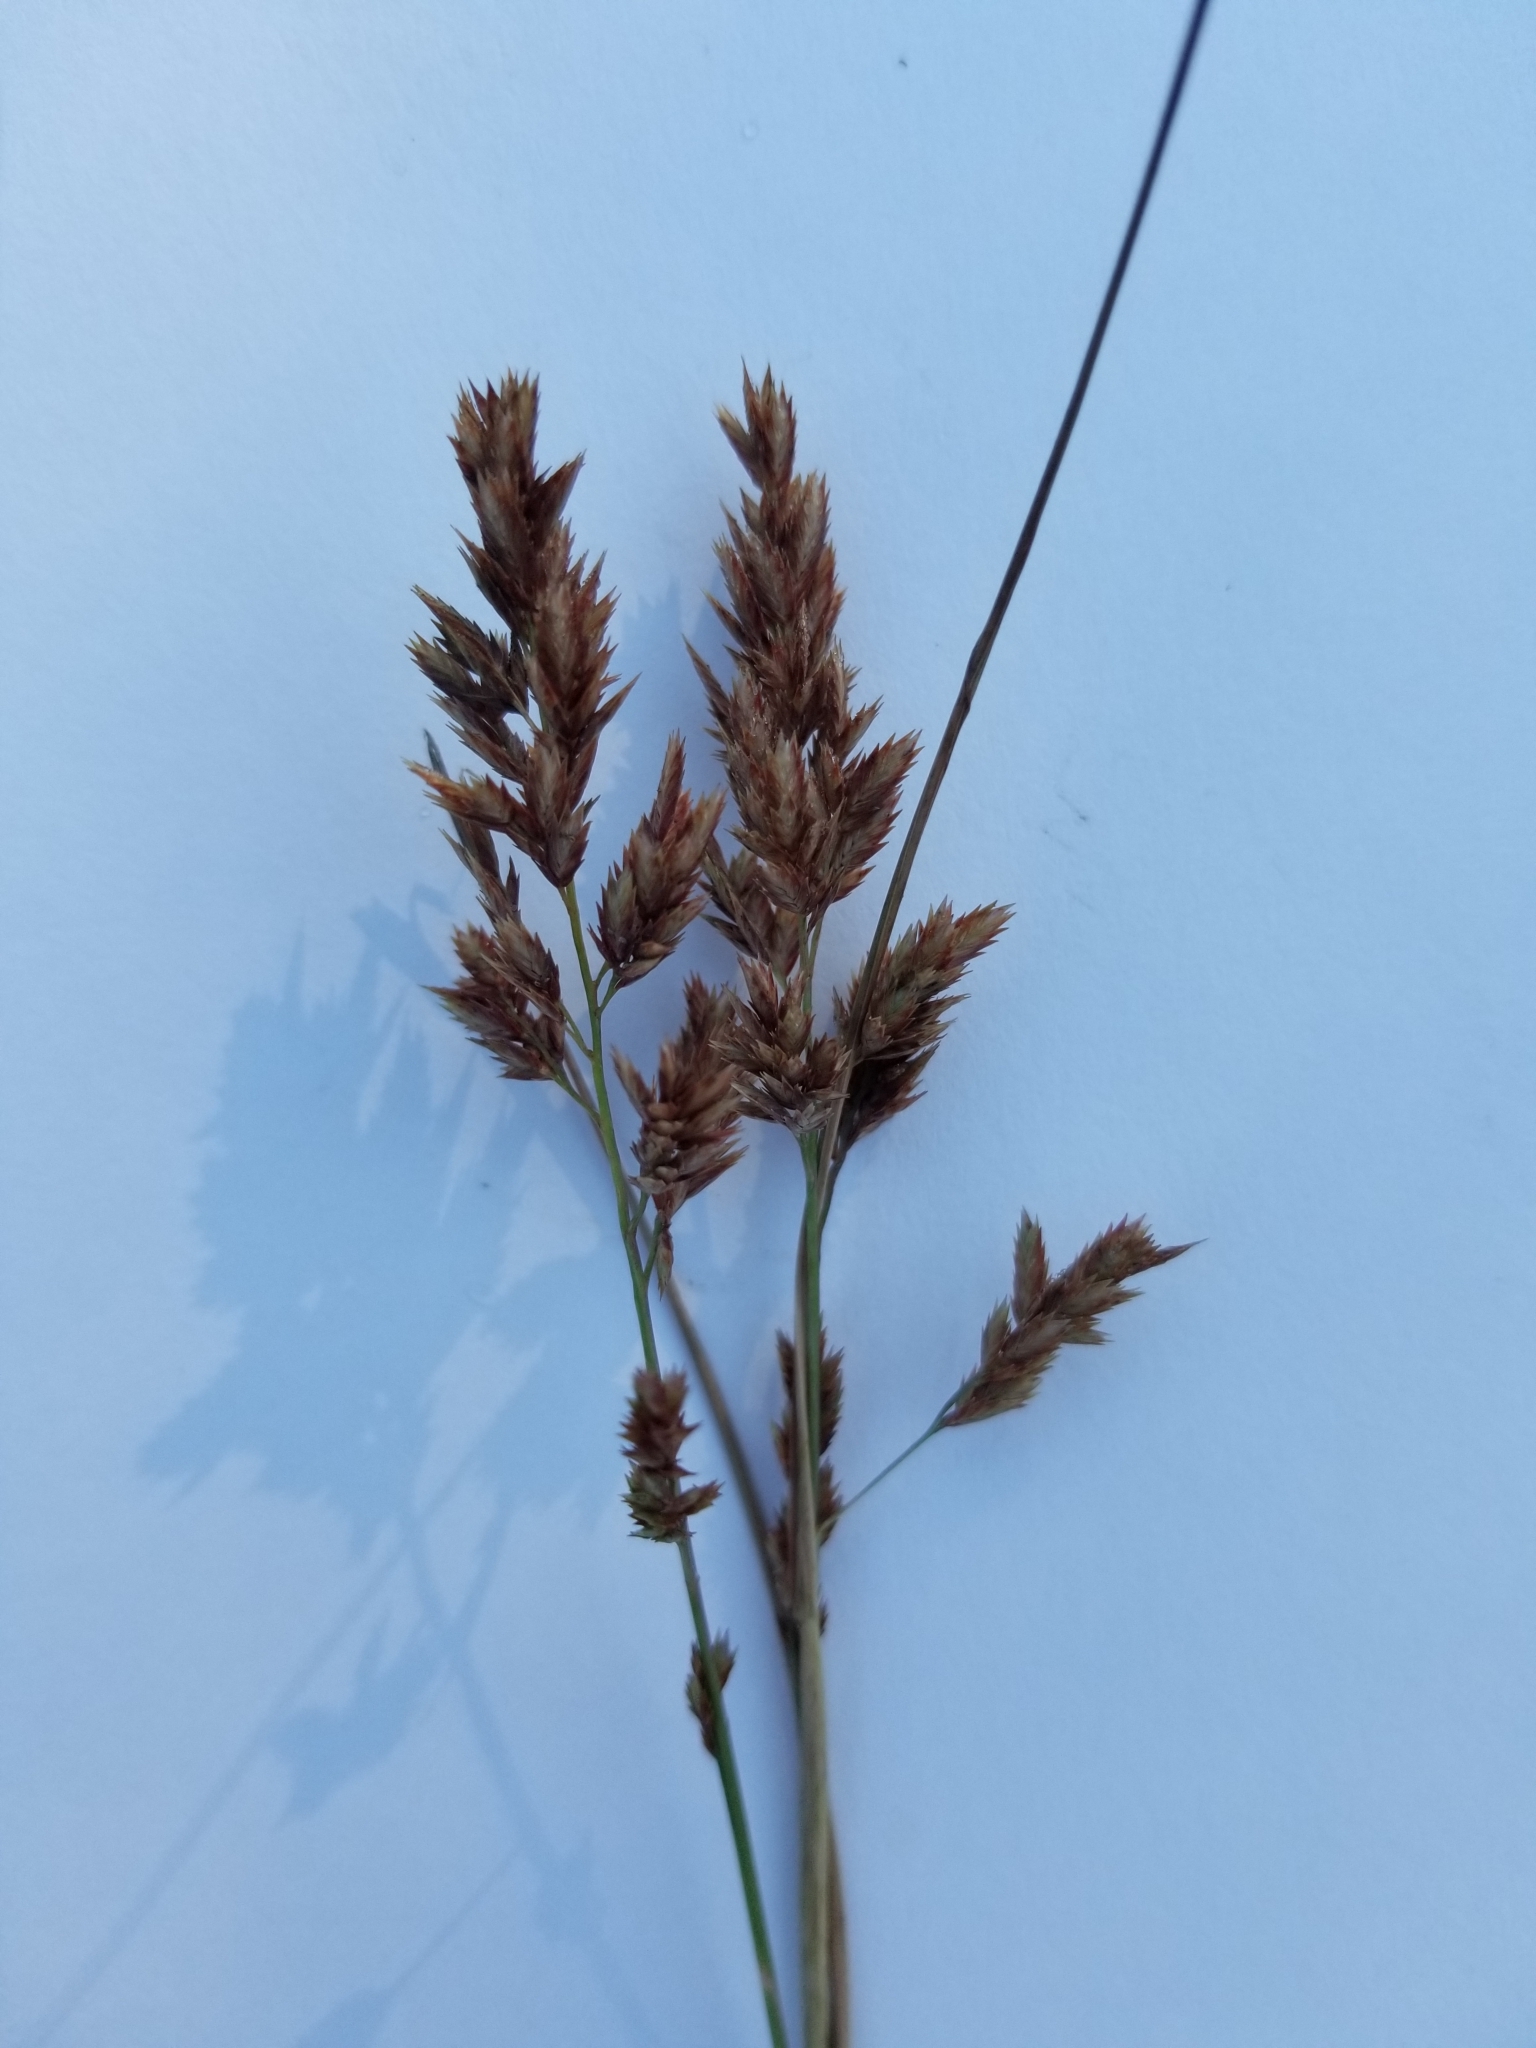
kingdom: Plantae
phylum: Tracheophyta
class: Liliopsida
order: Poales
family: Poaceae
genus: Eragrostis
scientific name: Eragrostis secundiflora
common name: Red love grass
